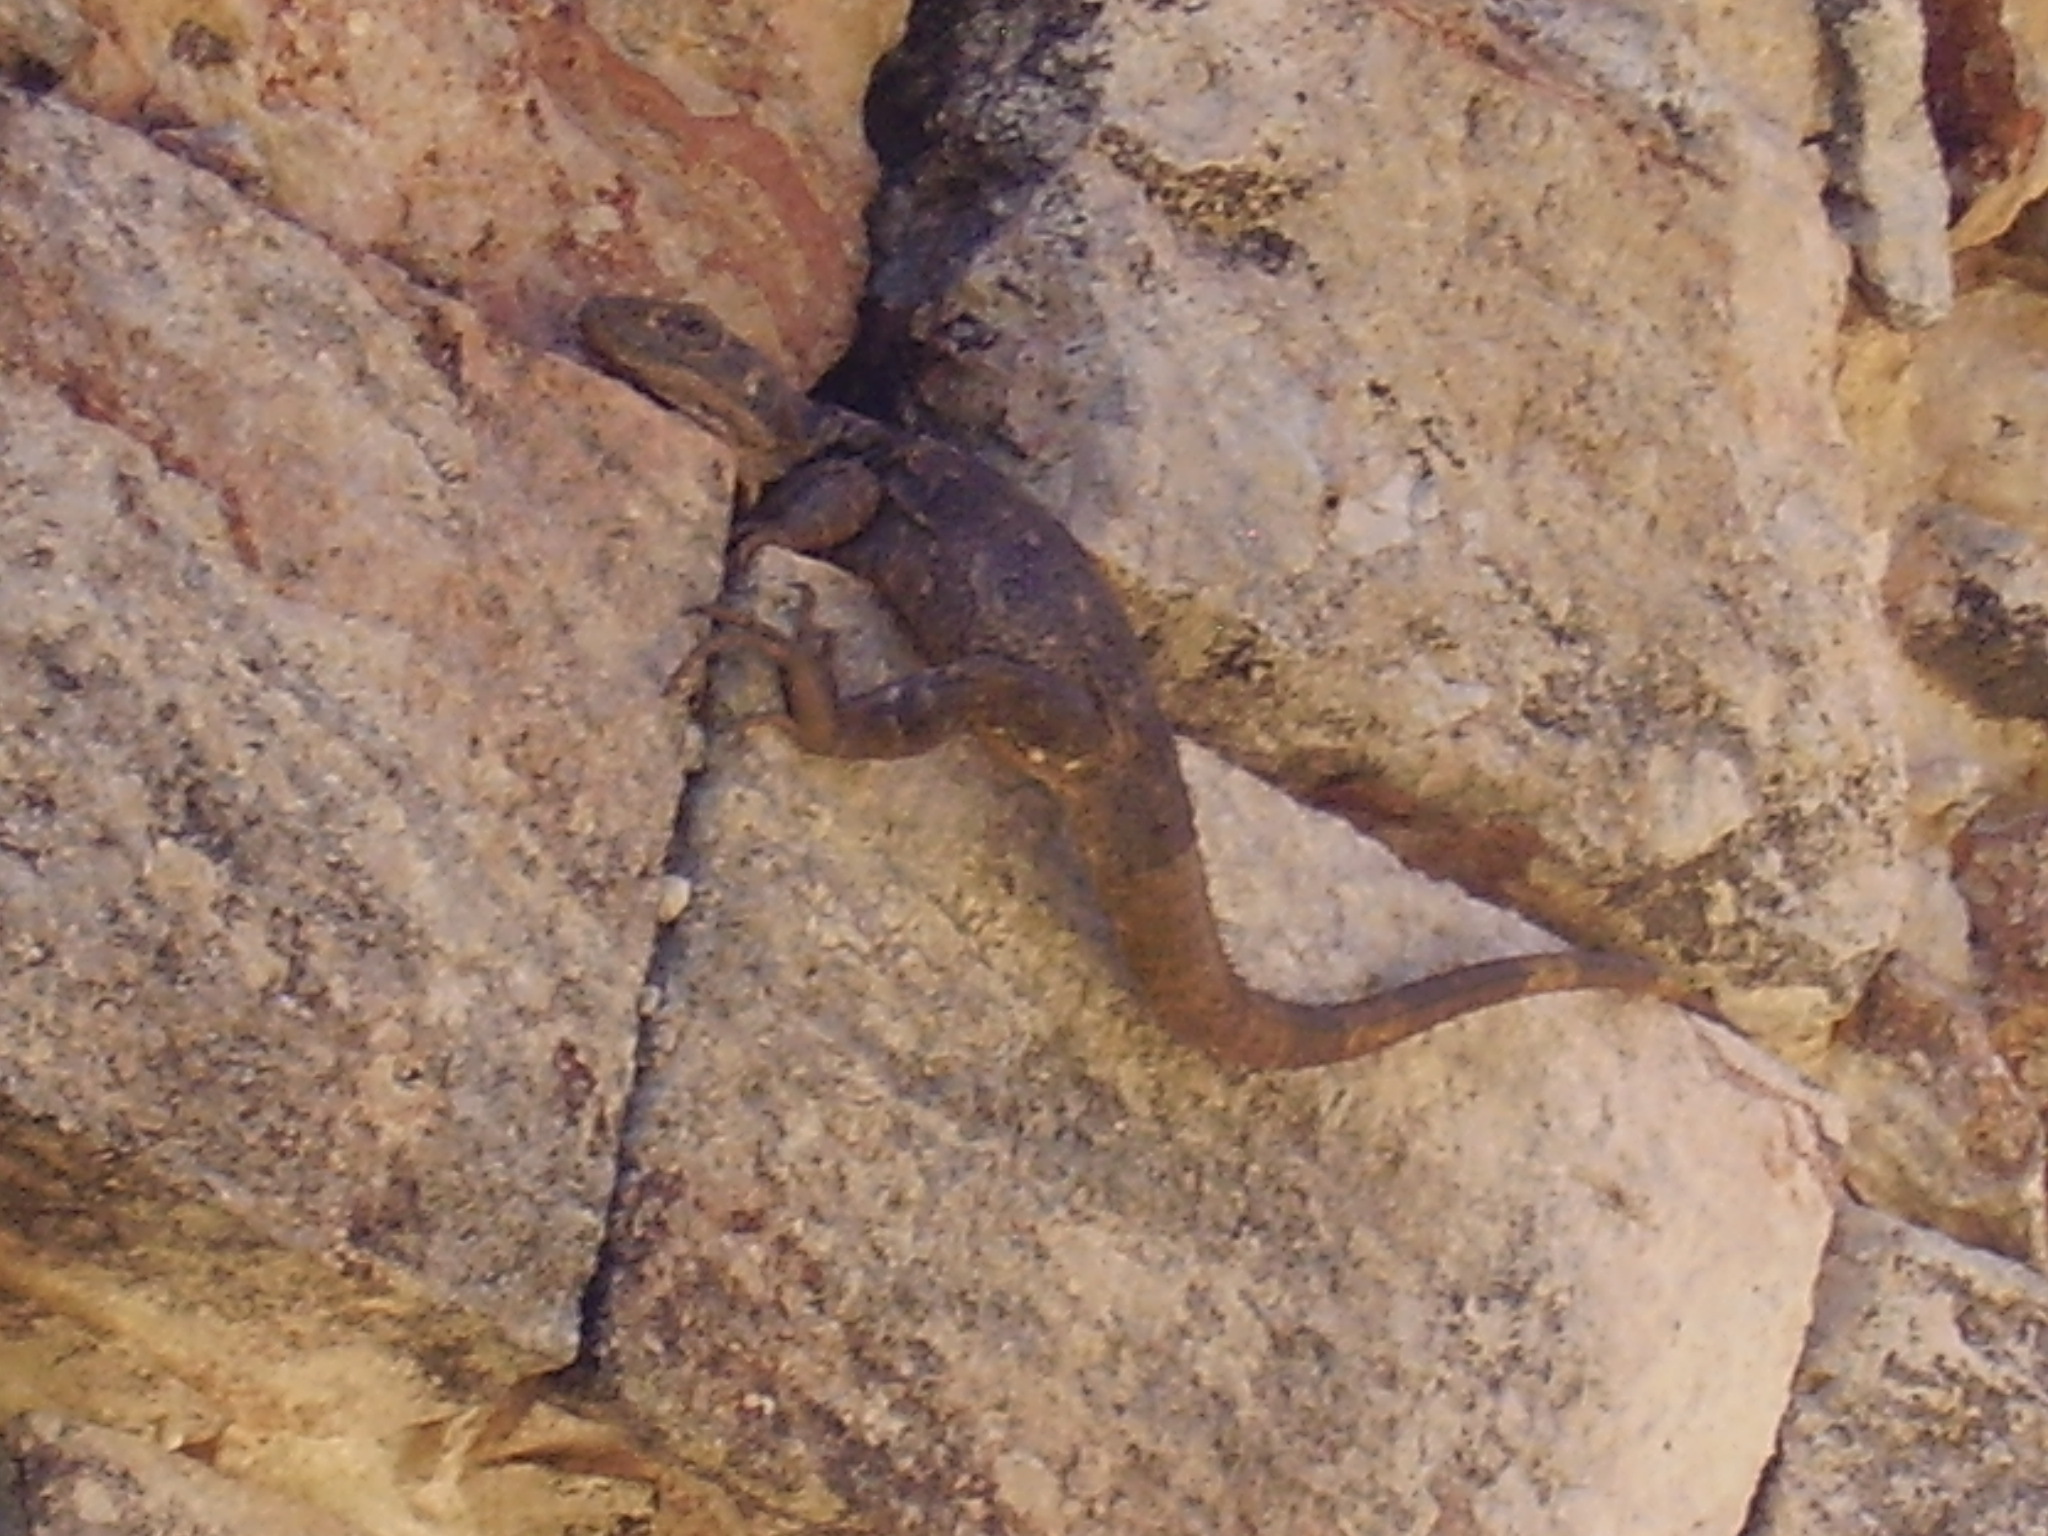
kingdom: Animalia
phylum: Chordata
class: Squamata
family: Iguanidae
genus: Ctenosaura
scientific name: Ctenosaura similis
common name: Black spiny-tailed iguana
